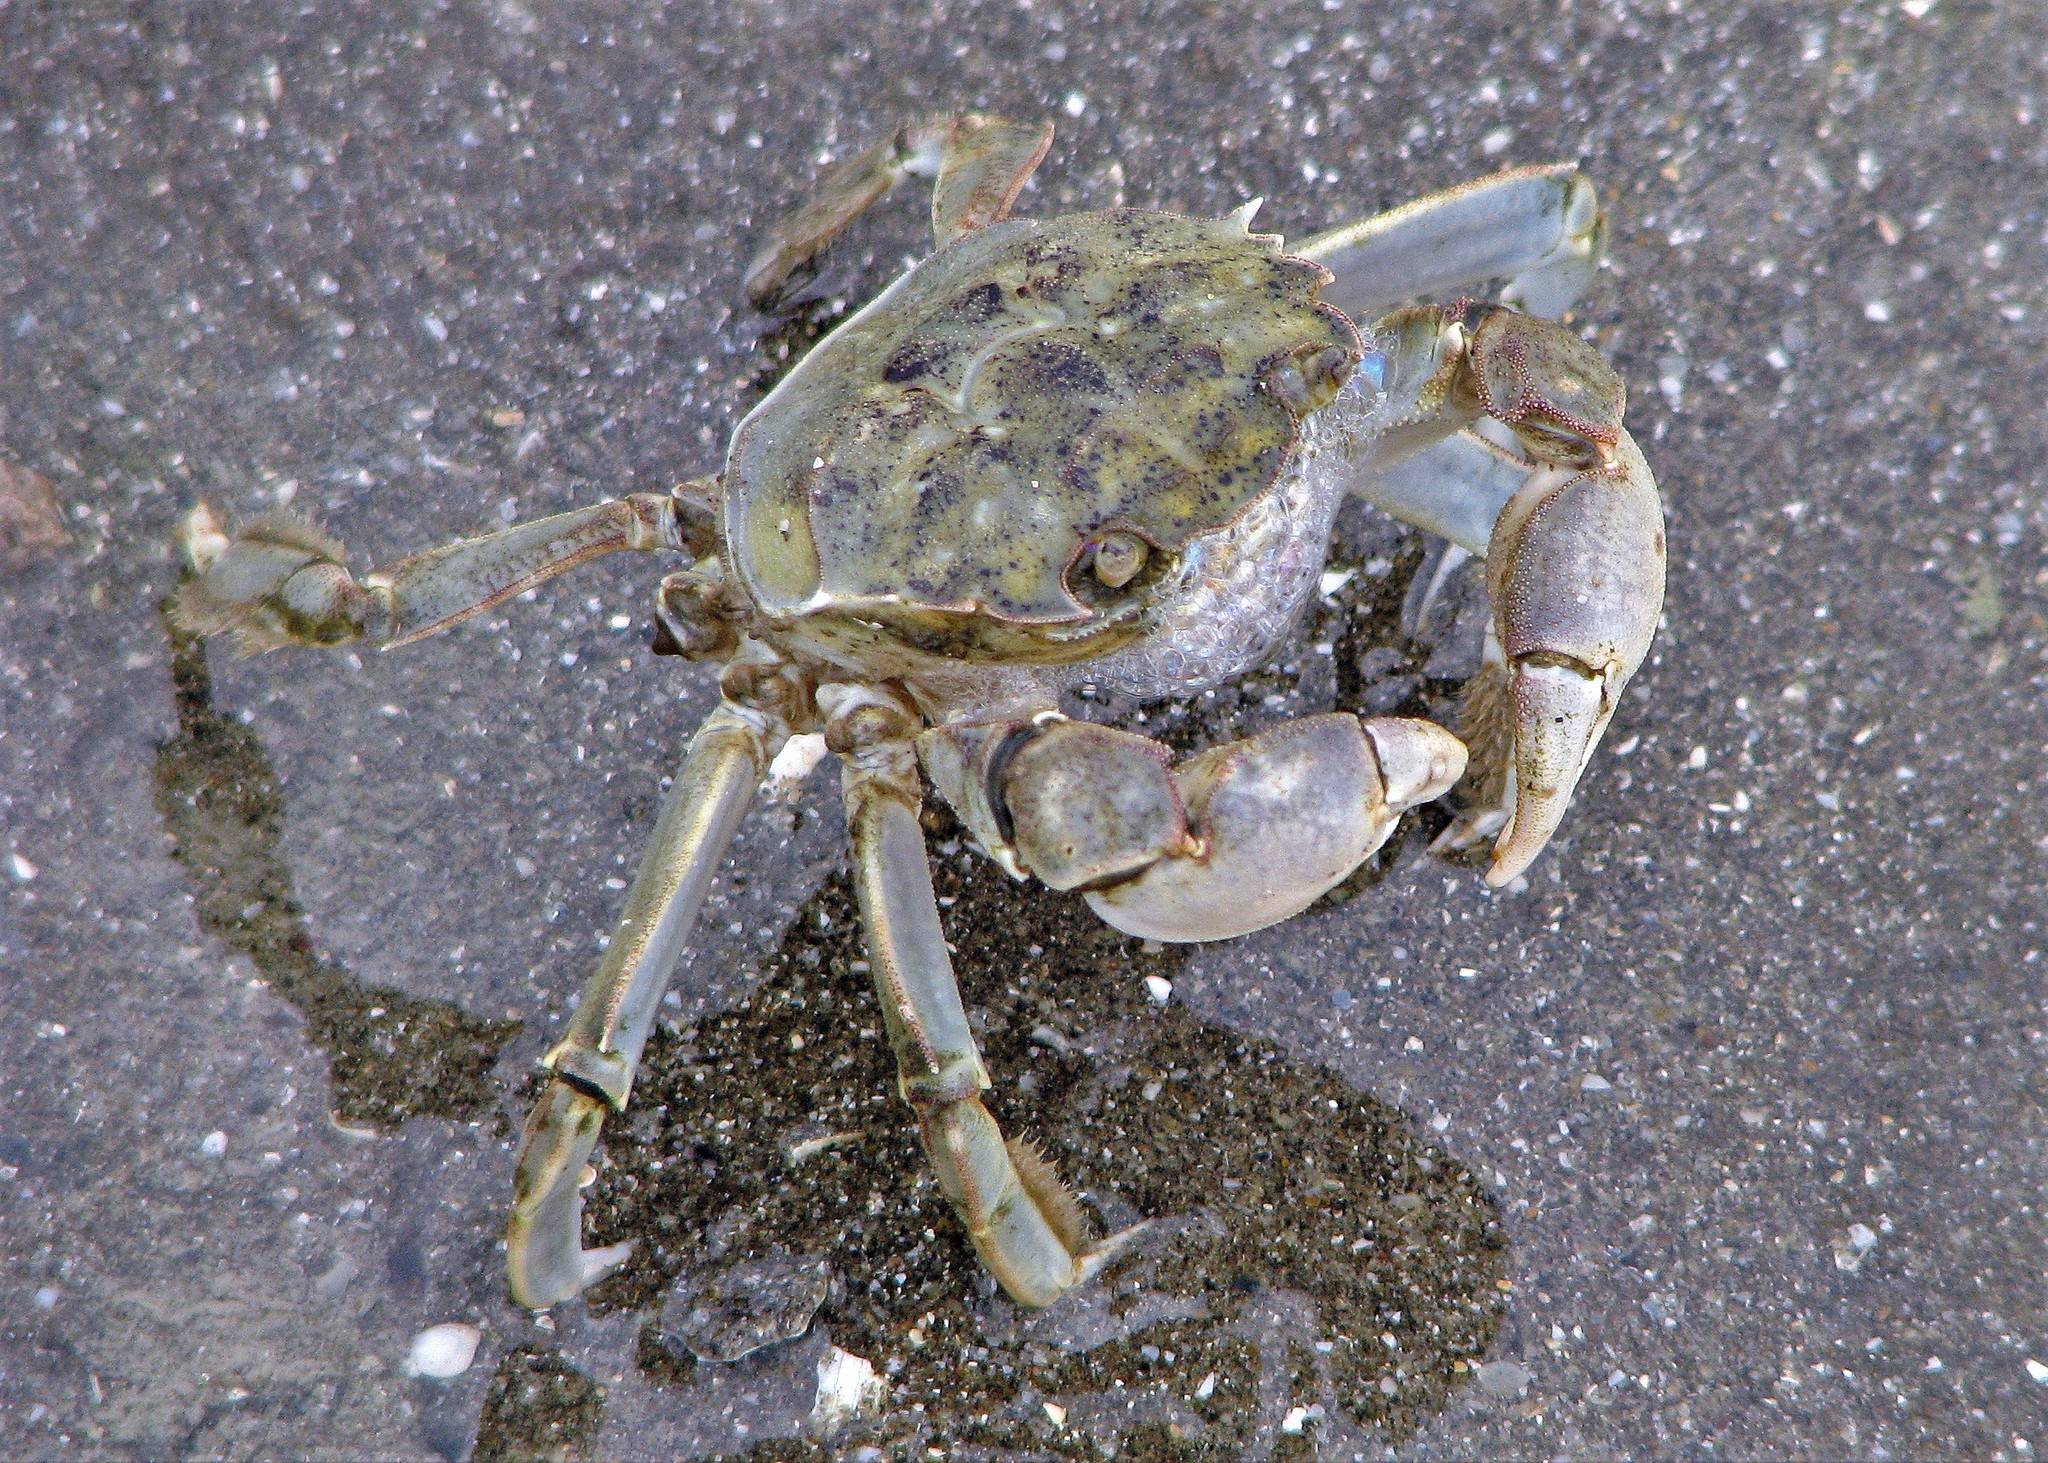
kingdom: Animalia
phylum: Arthropoda
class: Malacostraca
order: Decapoda
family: Varunidae
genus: Cyrtograpsus
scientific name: Cyrtograpsus angulatus
